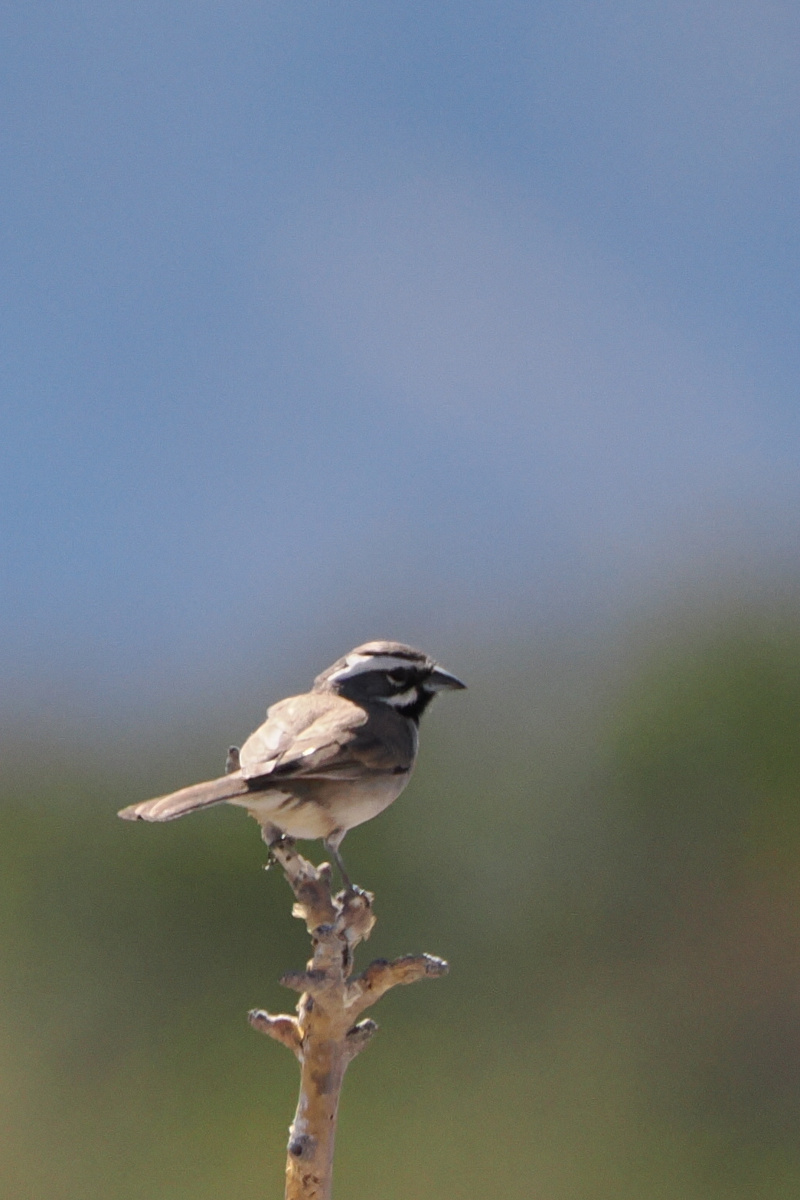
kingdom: Animalia
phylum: Chordata
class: Aves
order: Passeriformes
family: Passerellidae
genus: Amphispiza
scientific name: Amphispiza bilineata
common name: Black-throated sparrow
